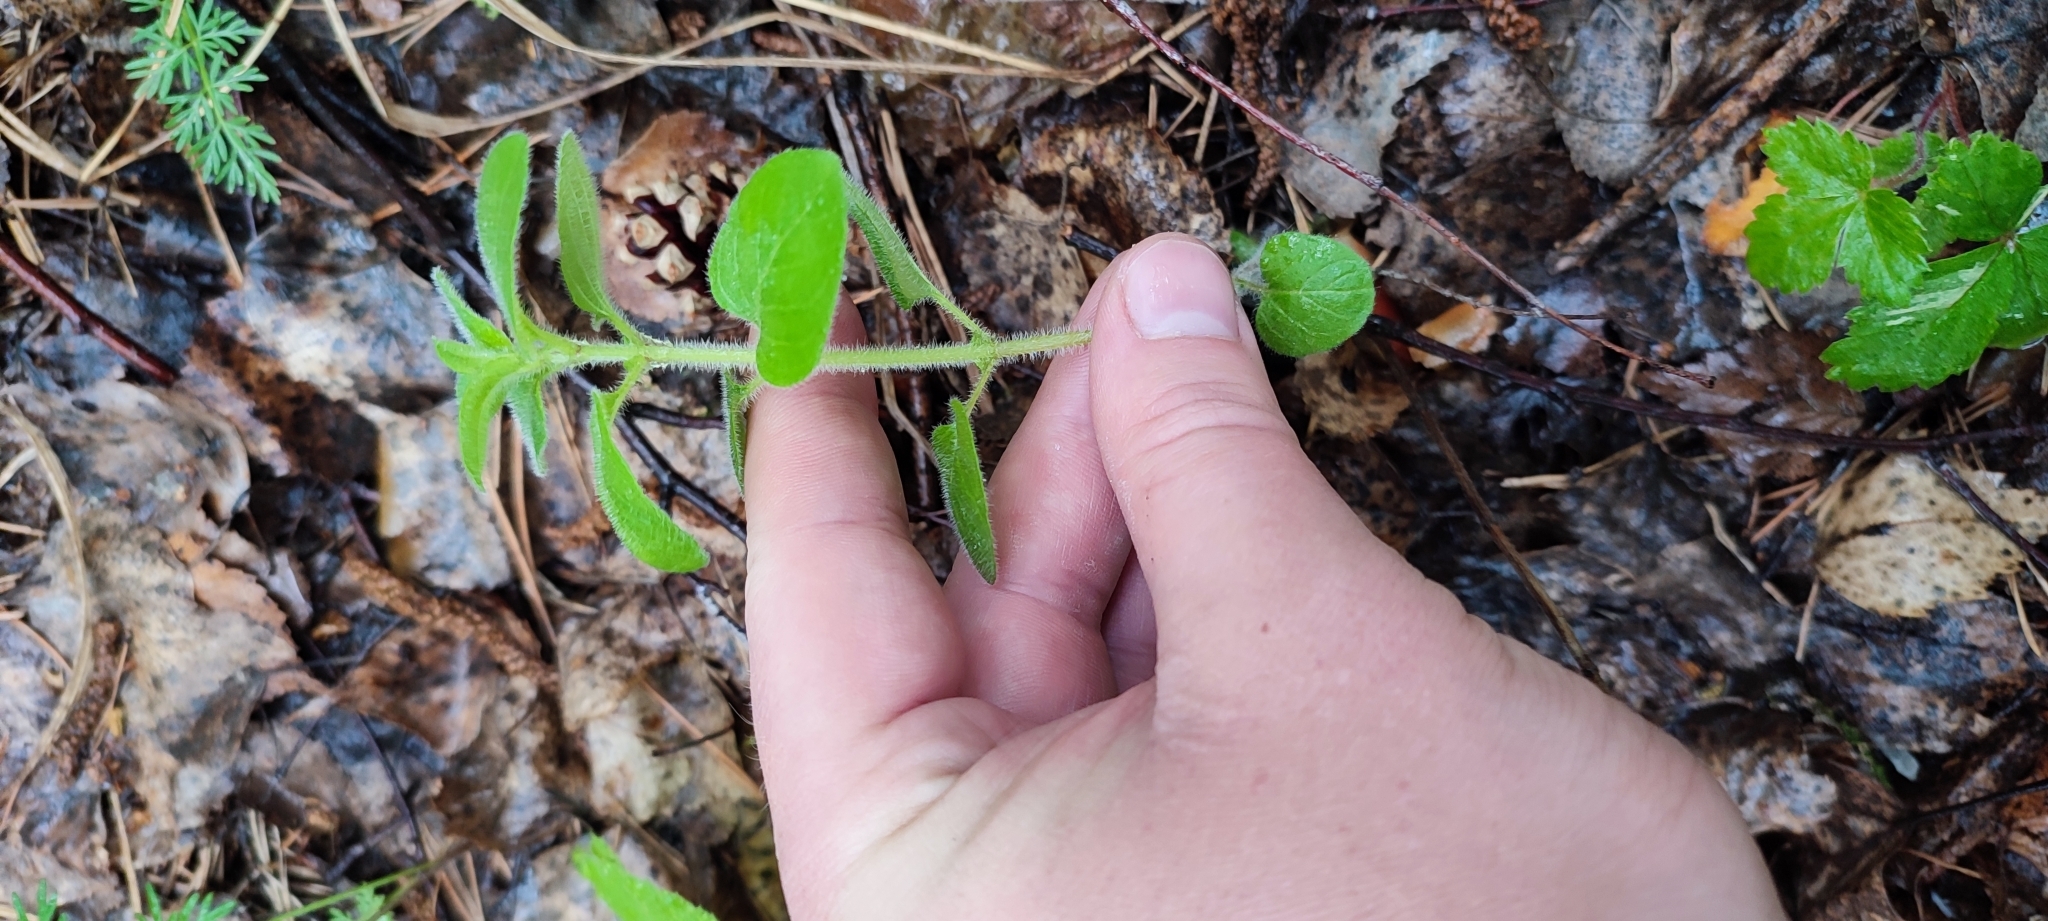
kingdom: Plantae
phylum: Tracheophyta
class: Magnoliopsida
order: Lamiales
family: Lamiaceae
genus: Origanum
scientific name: Origanum vulgare
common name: Wild marjoram
